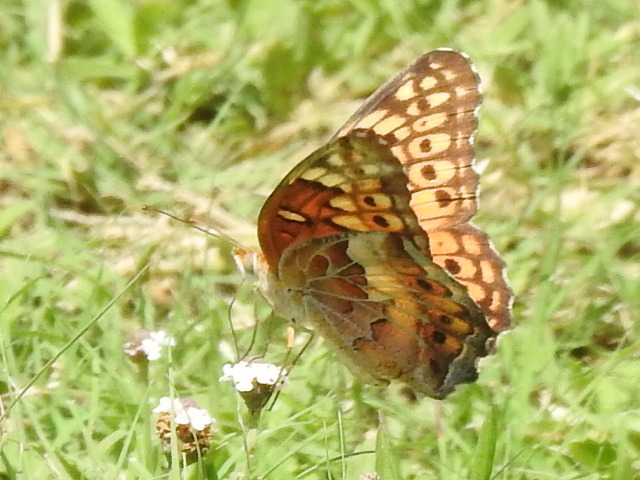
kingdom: Animalia
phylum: Arthropoda
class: Insecta
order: Lepidoptera
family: Nymphalidae
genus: Euptoieta
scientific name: Euptoieta claudia
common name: Variegated fritillary
